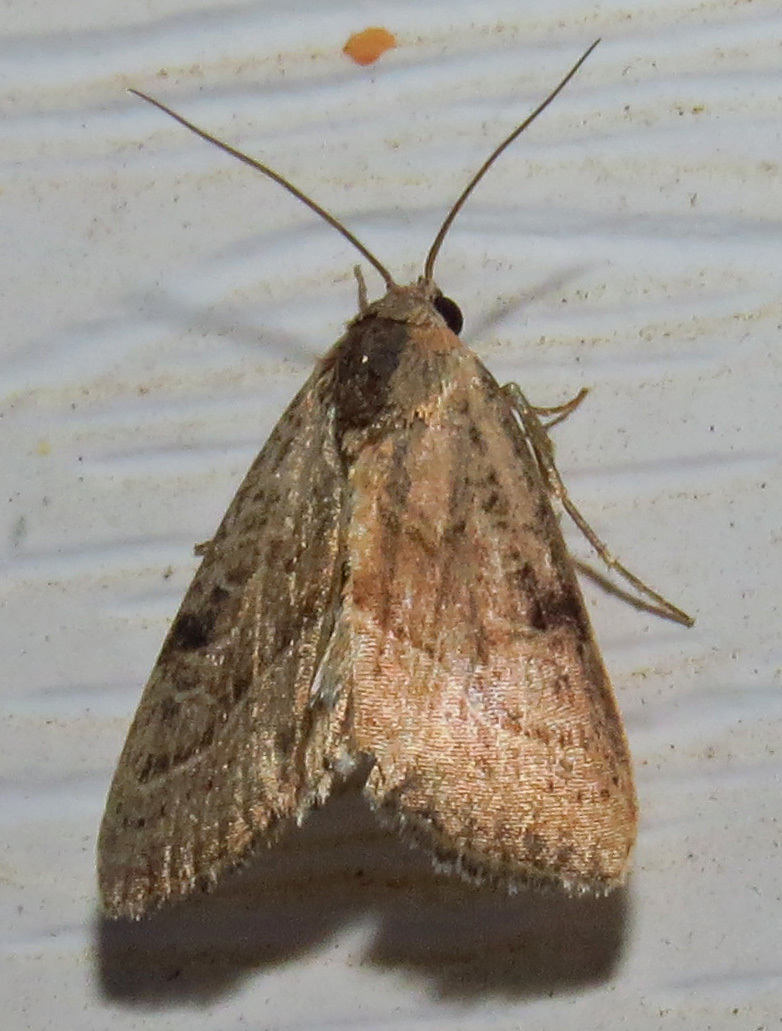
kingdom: Animalia
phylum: Arthropoda
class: Insecta
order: Lepidoptera
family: Noctuidae
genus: Galgula
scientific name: Galgula partita
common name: Wedgeling
